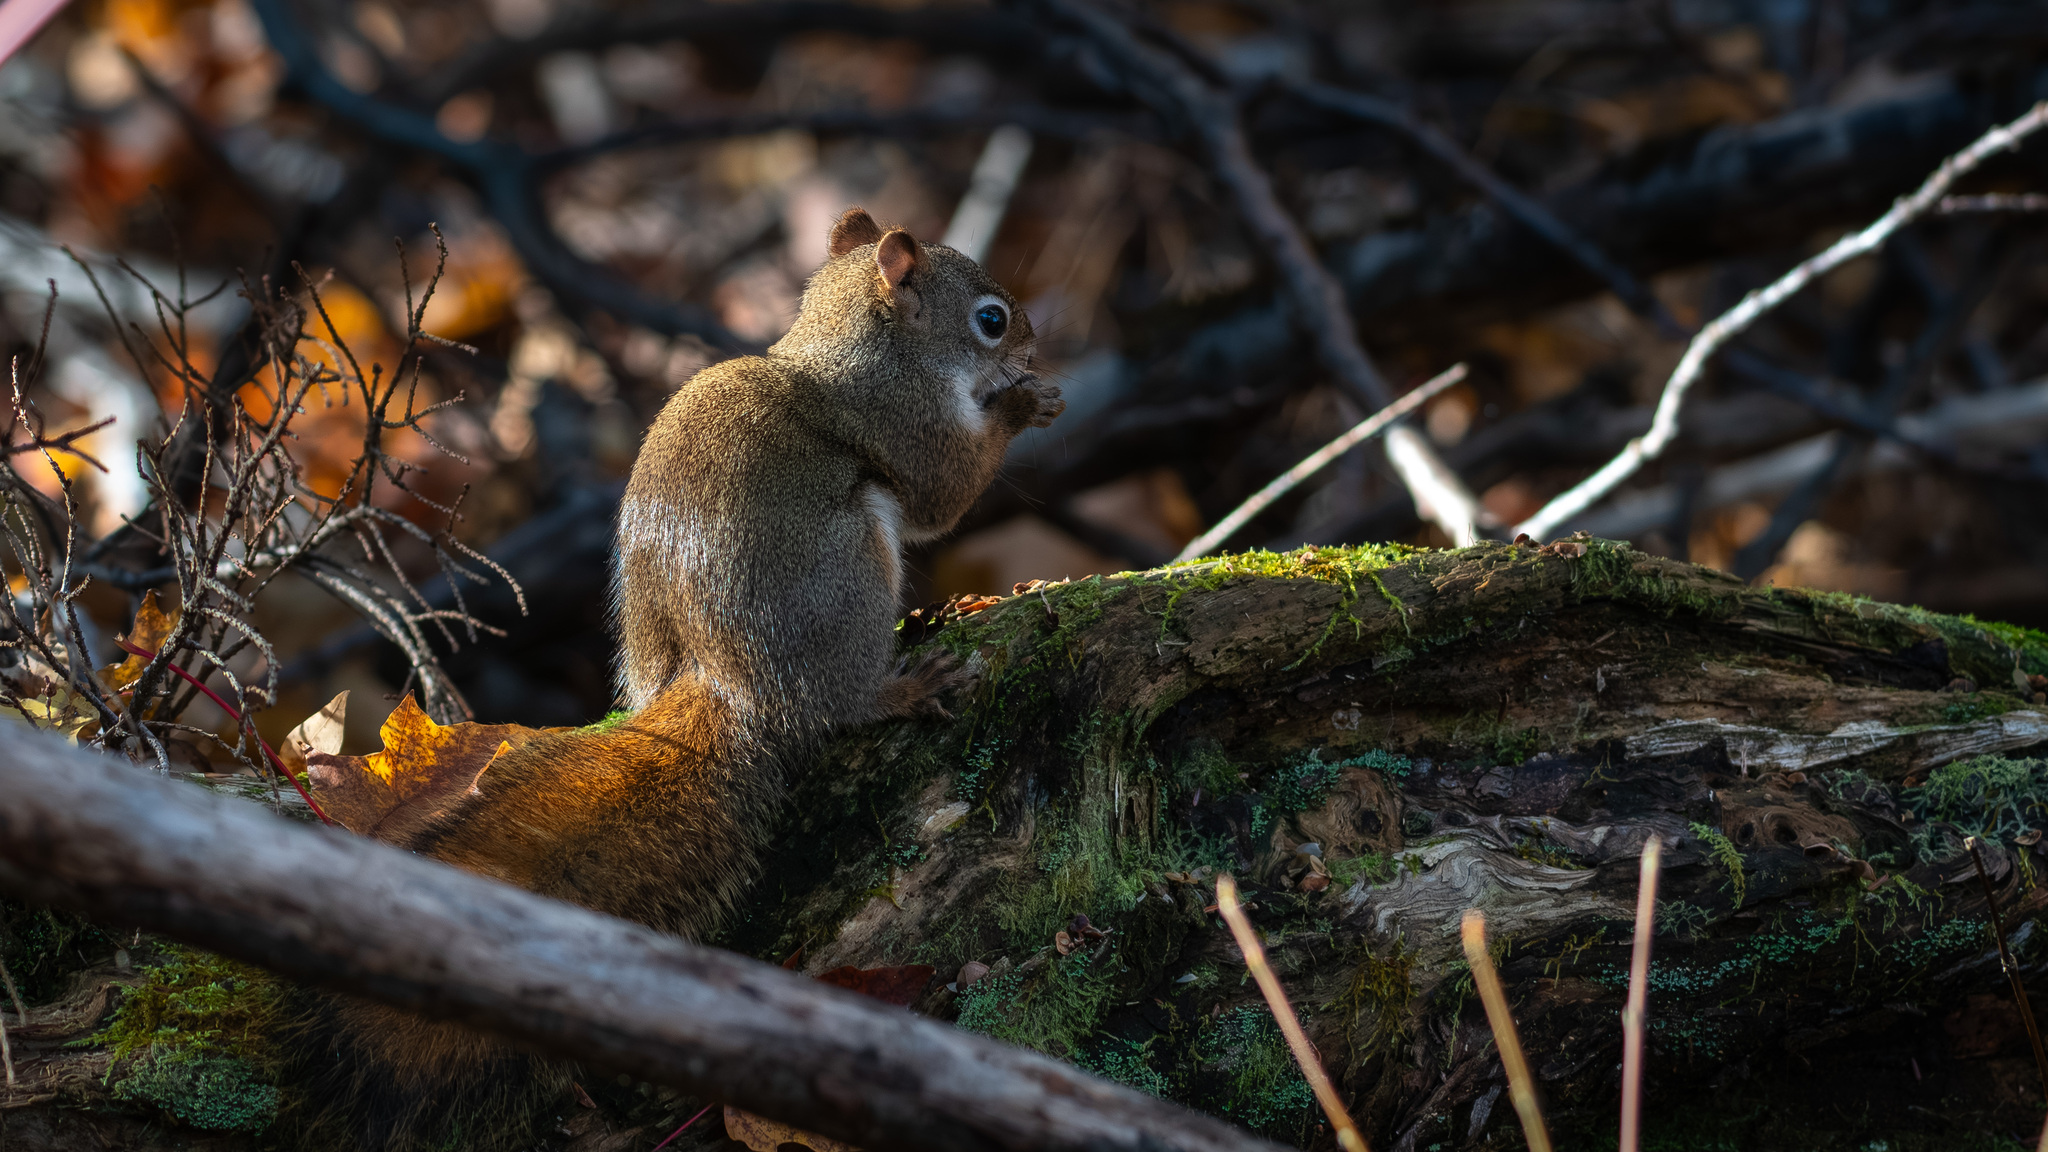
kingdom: Animalia
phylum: Chordata
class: Mammalia
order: Rodentia
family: Sciuridae
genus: Tamiasciurus
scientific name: Tamiasciurus hudsonicus
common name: Red squirrel
